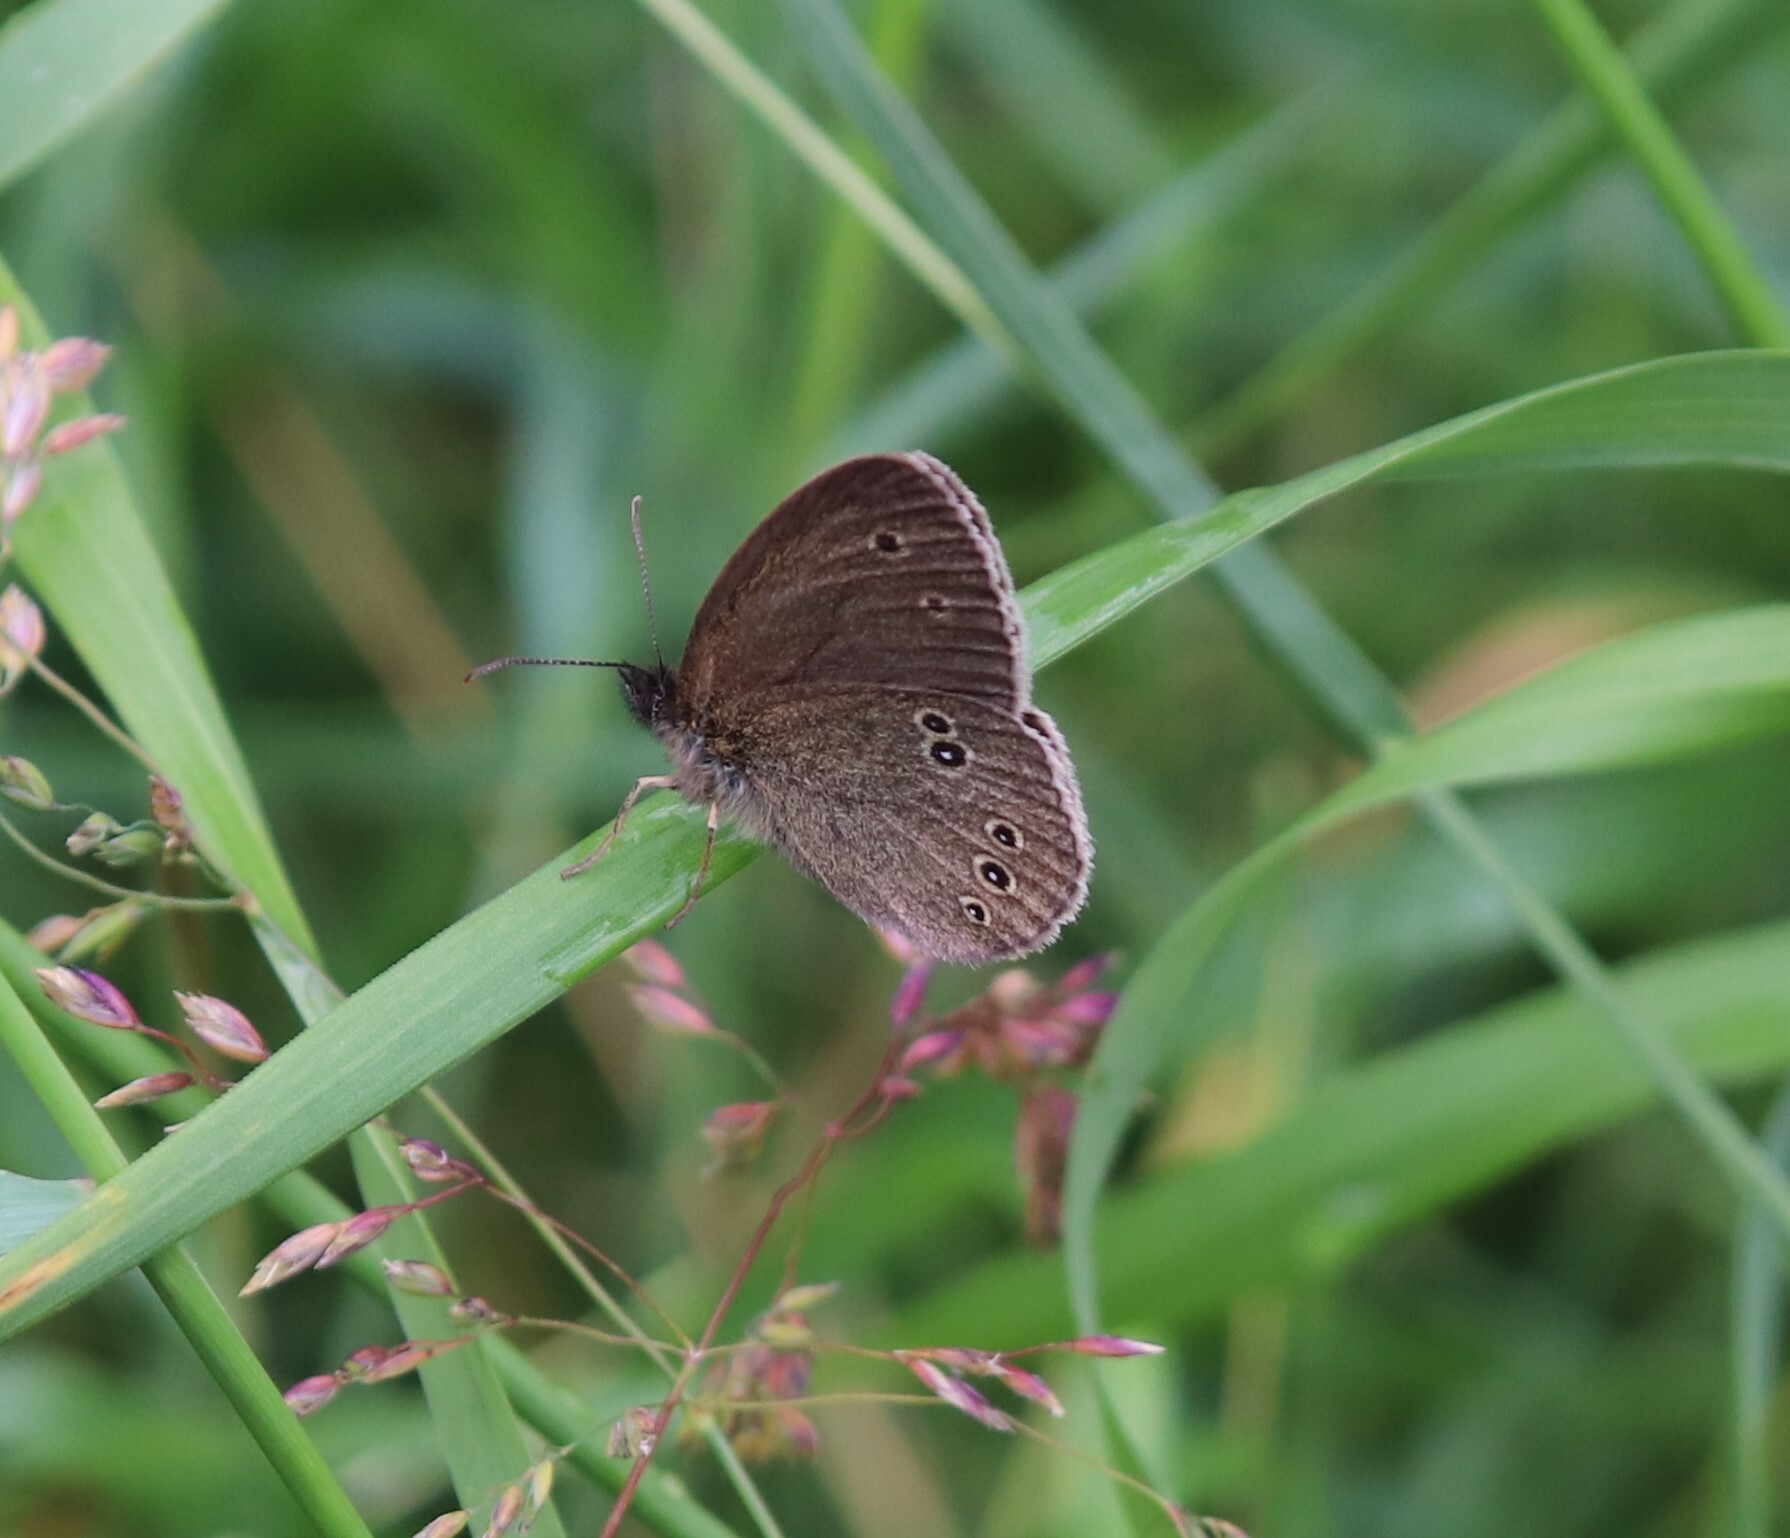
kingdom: Animalia
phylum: Arthropoda
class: Insecta
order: Lepidoptera
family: Nymphalidae
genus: Aphantopus
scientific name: Aphantopus hyperantus
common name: Ringlet
